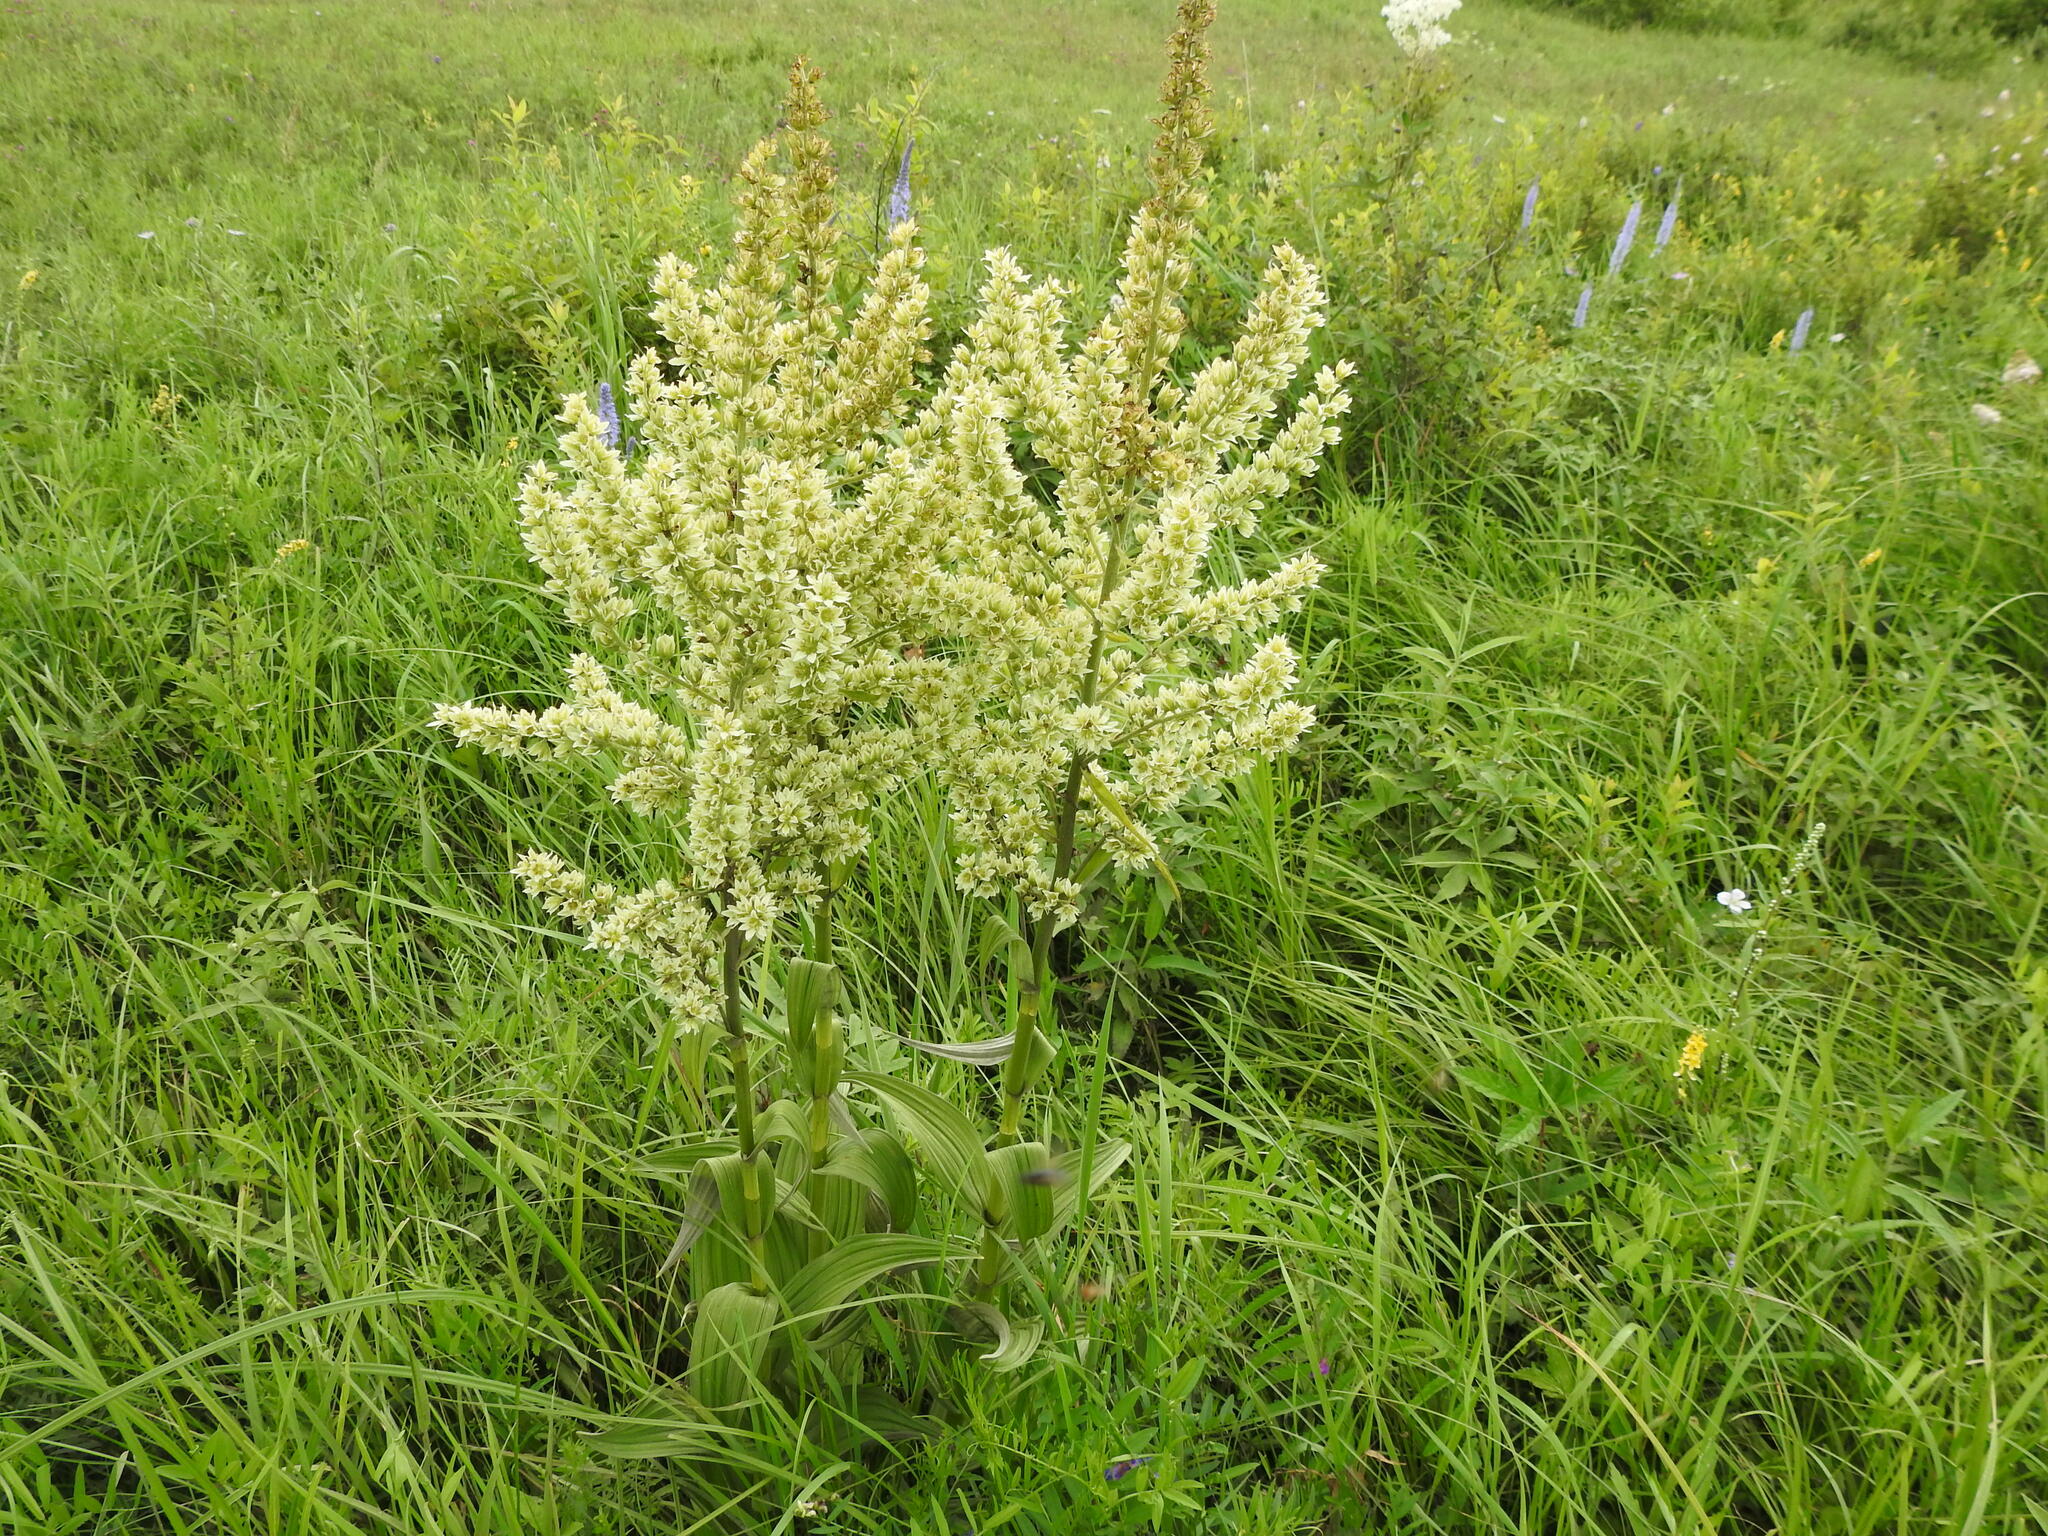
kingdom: Plantae
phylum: Tracheophyta
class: Liliopsida
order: Liliales
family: Melanthiaceae
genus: Veratrum
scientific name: Veratrum dahuricum
